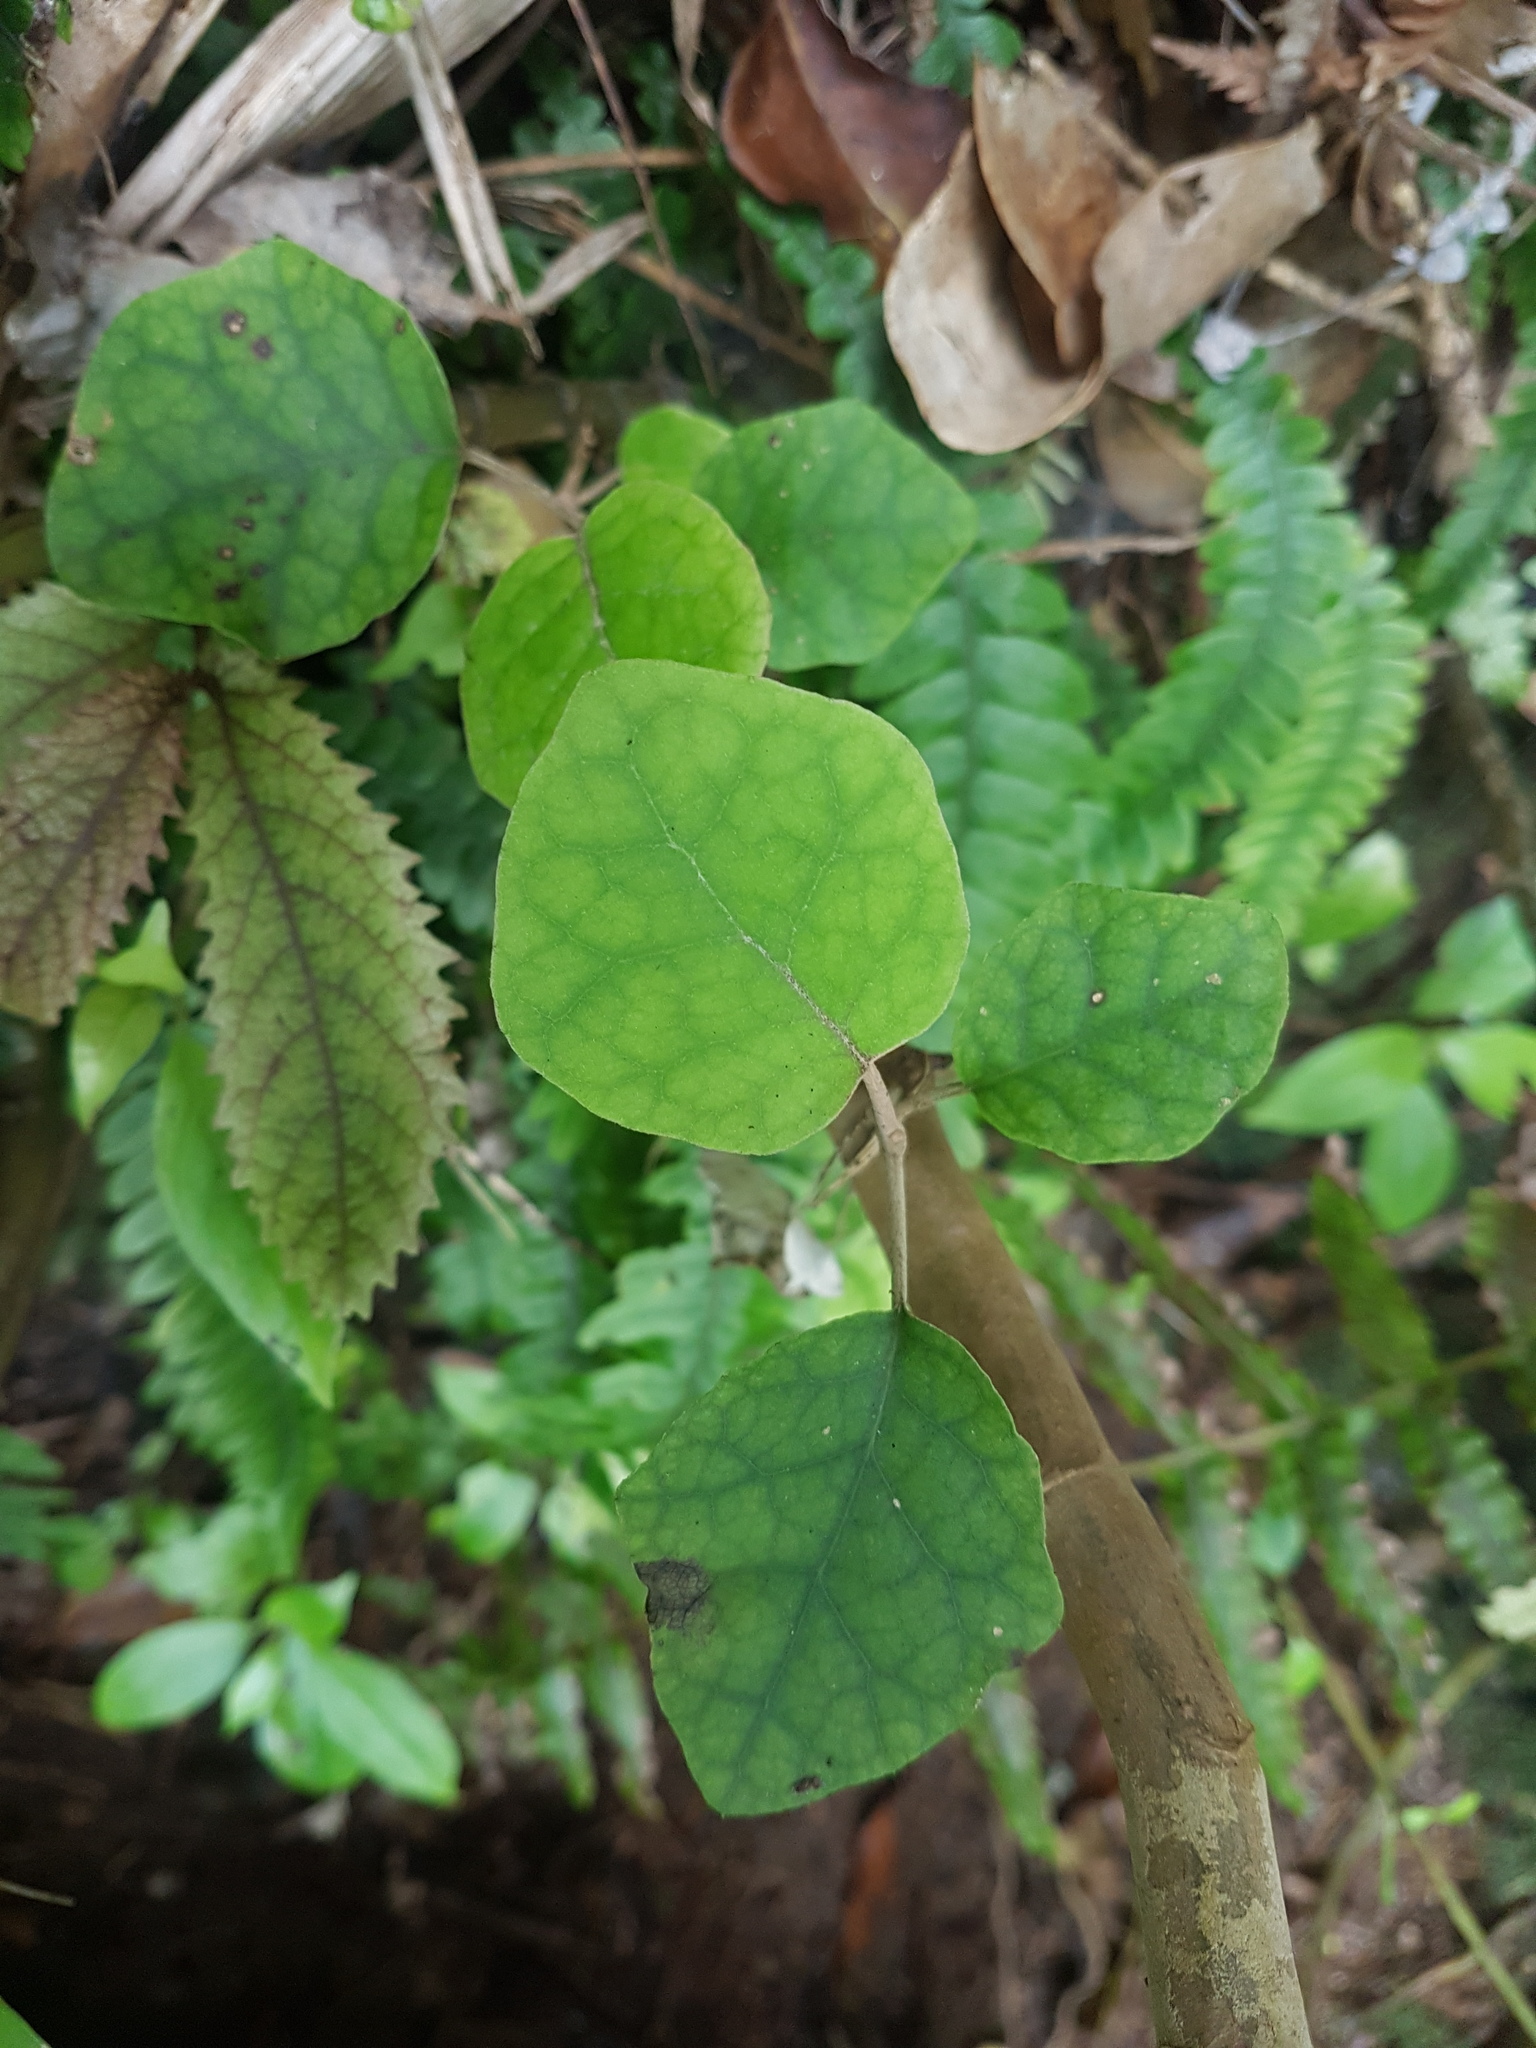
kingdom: Plantae
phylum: Tracheophyta
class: Magnoliopsida
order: Asterales
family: Asteraceae
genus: Brachyglottis
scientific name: Brachyglottis repanda
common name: Hedge ragwort
